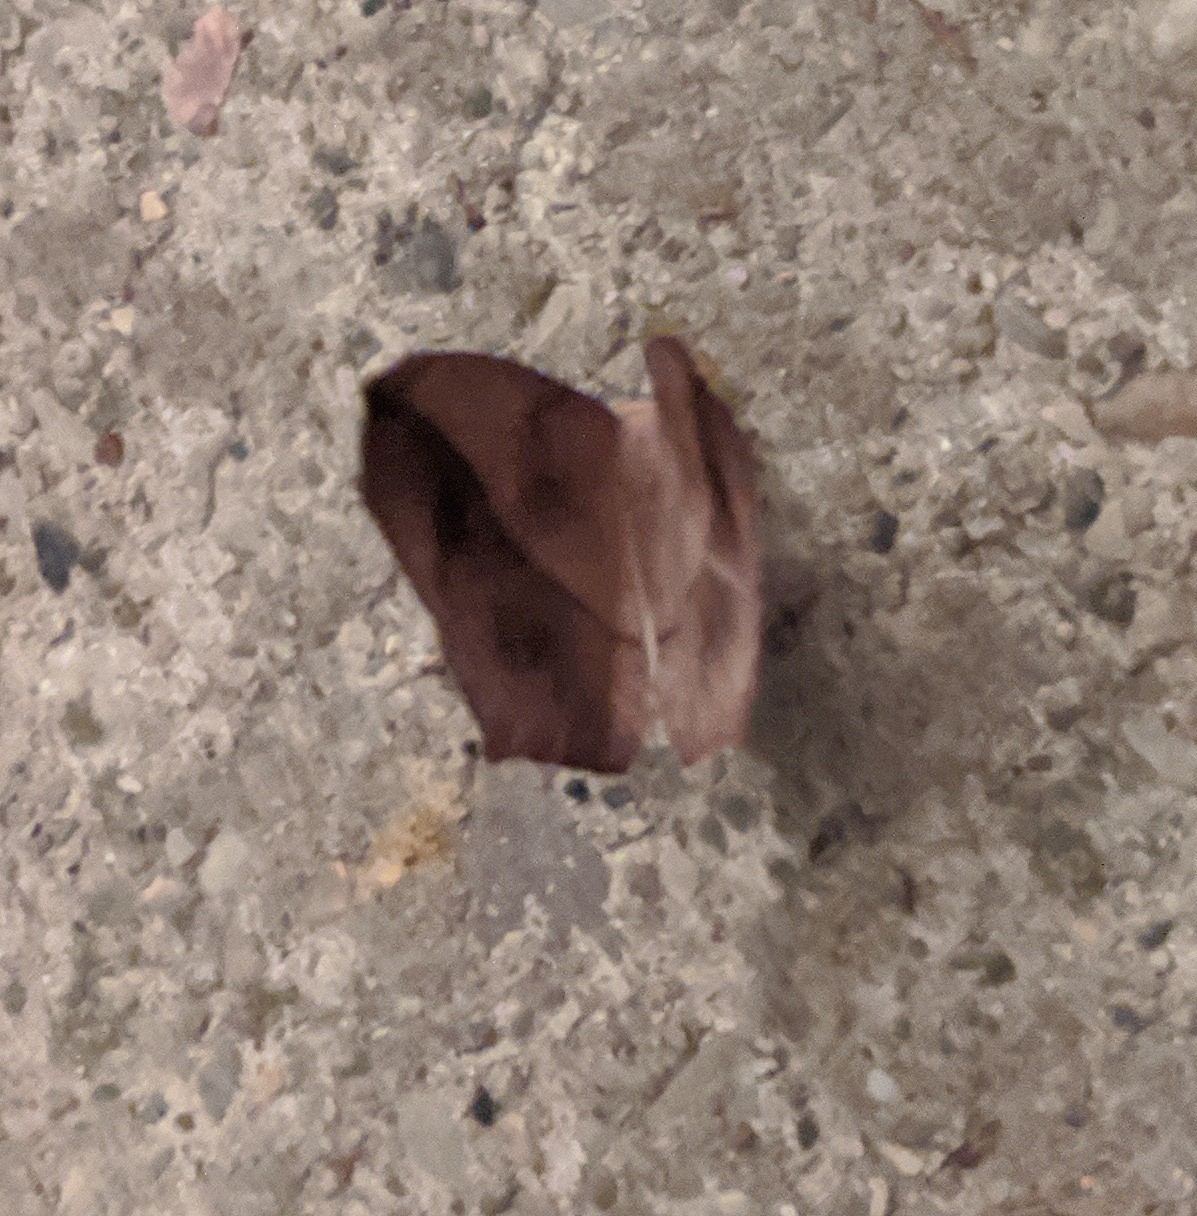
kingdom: Animalia
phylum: Arthropoda
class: Insecta
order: Lepidoptera
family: Geometridae
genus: Prochoerodes
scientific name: Prochoerodes lineola
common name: Large maple spanworm
